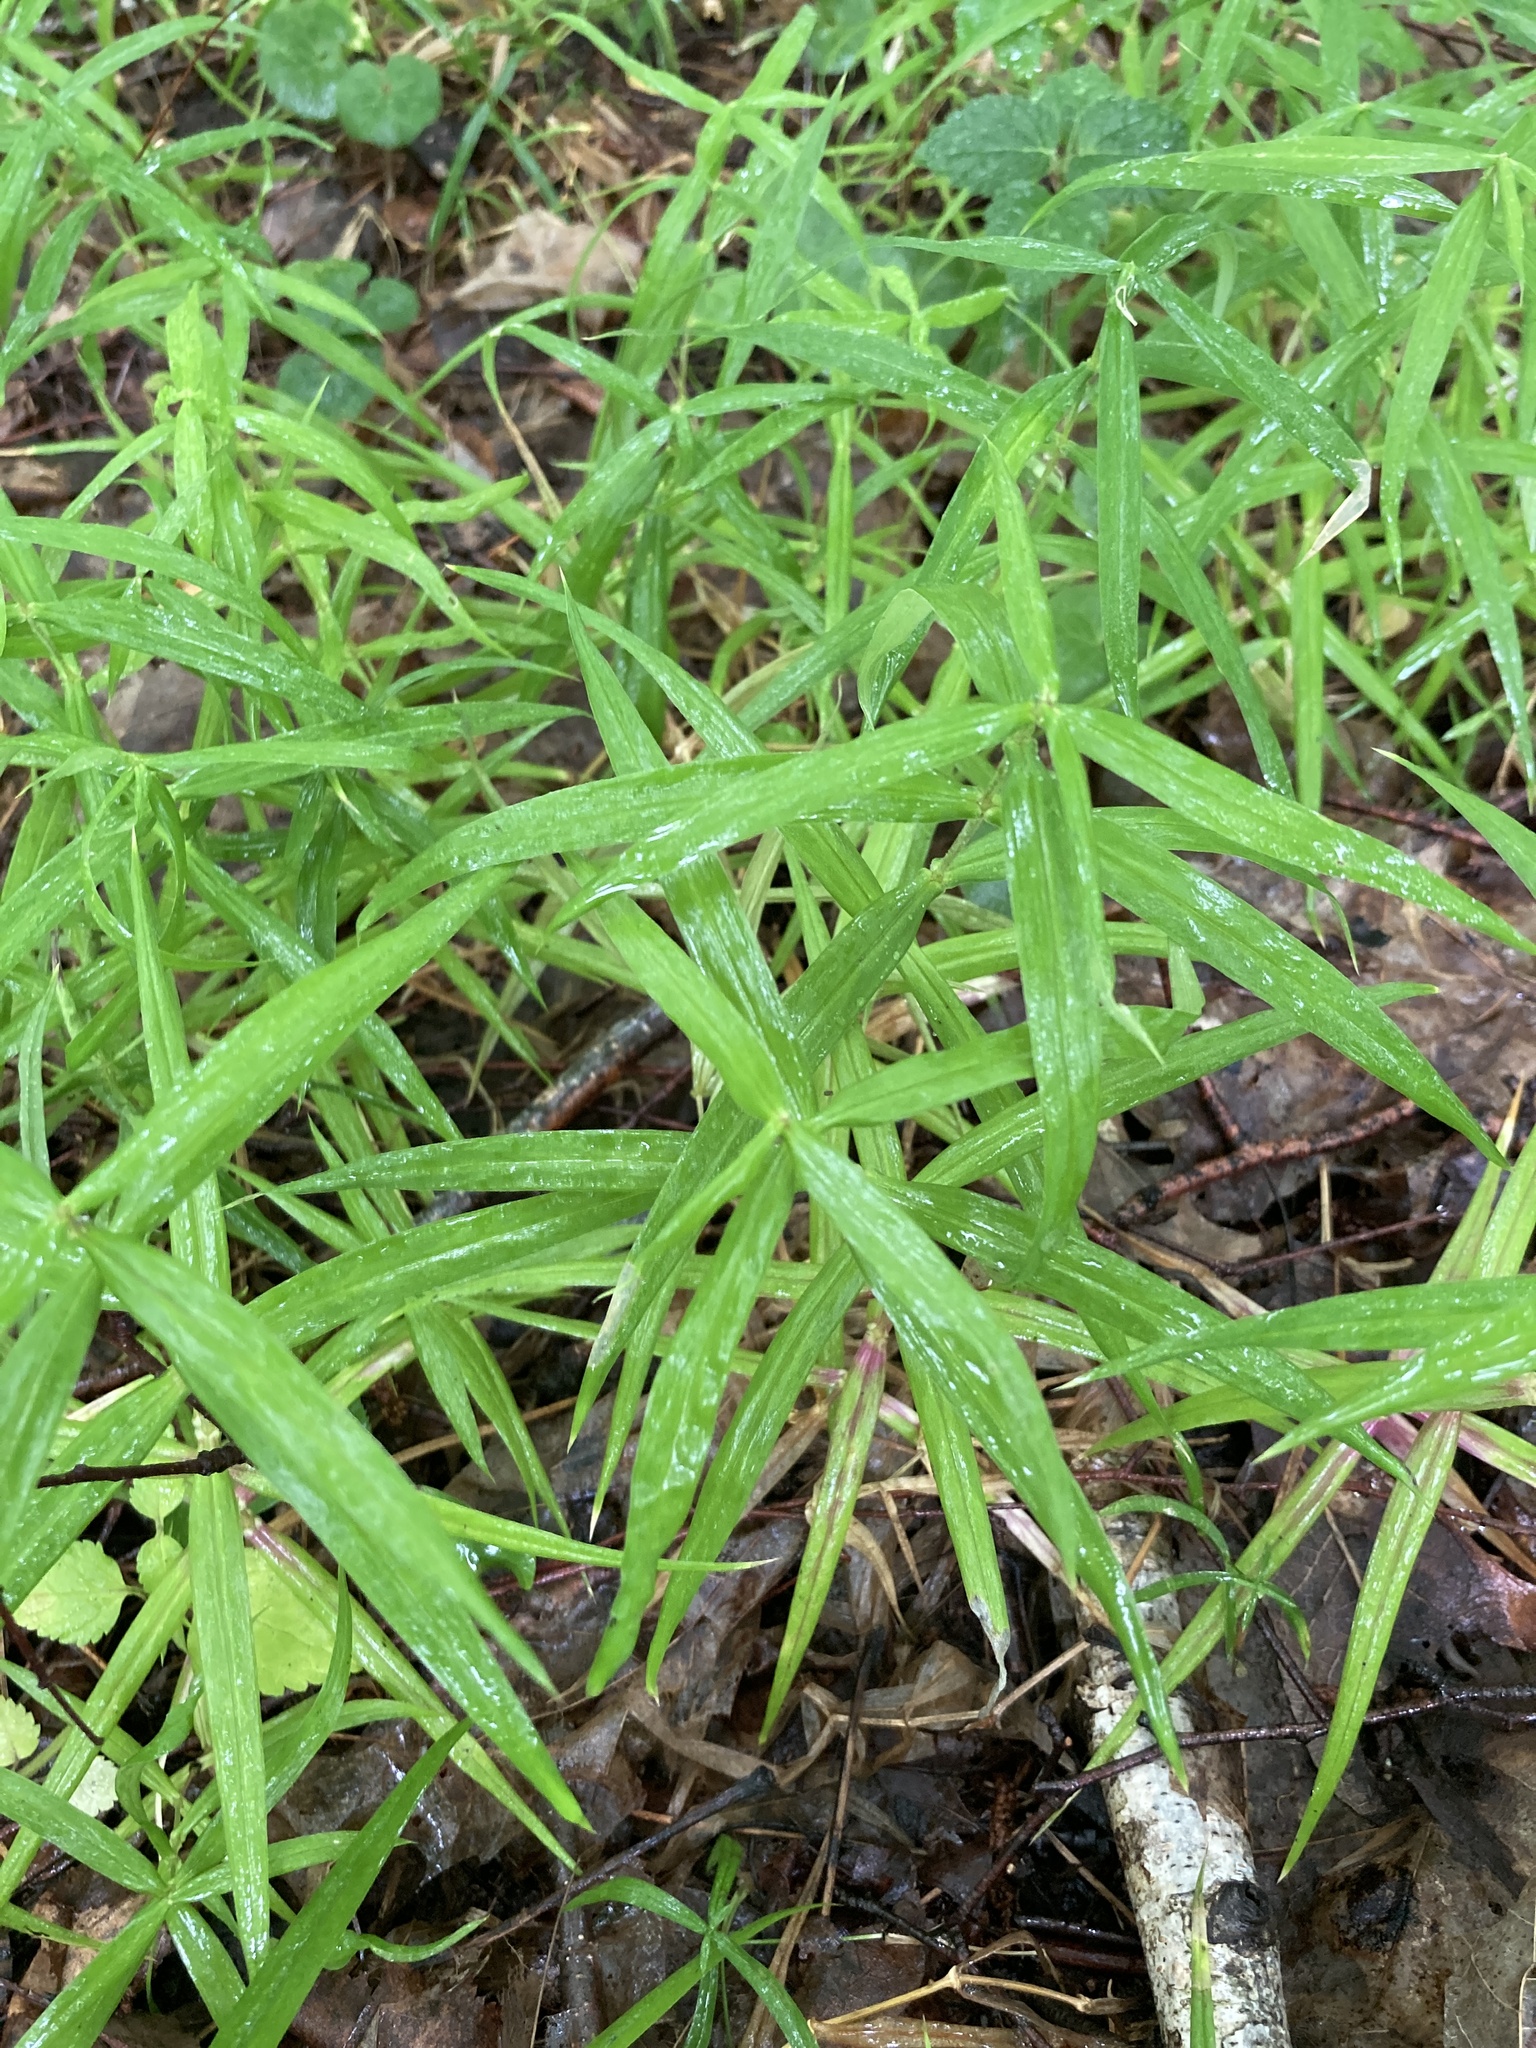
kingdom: Plantae
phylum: Tracheophyta
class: Magnoliopsida
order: Caryophyllales
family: Caryophyllaceae
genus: Rabelera
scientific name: Rabelera holostea
